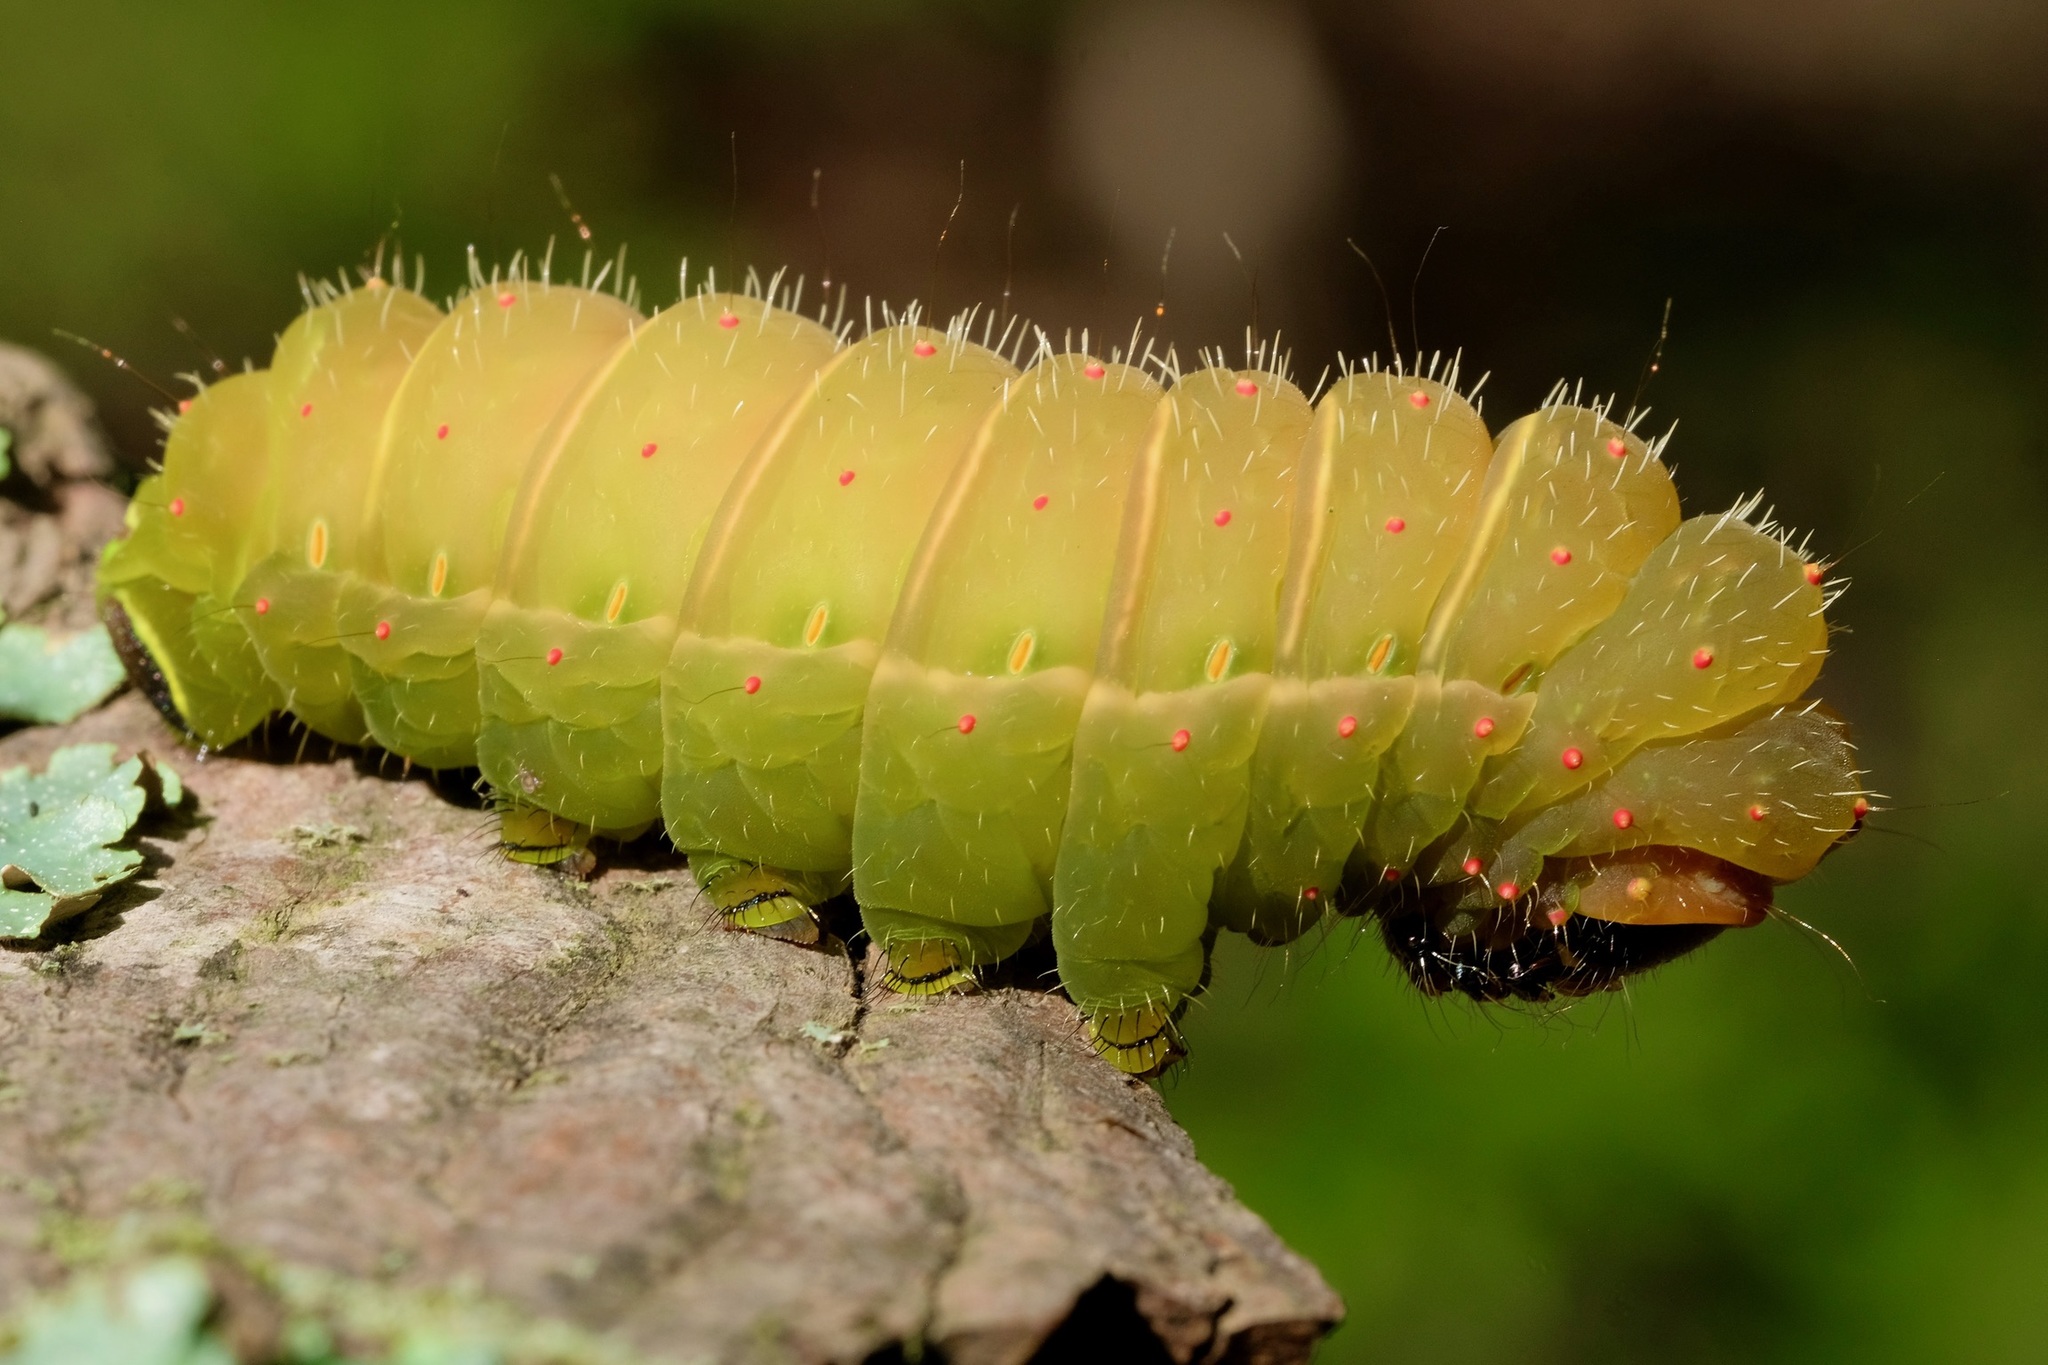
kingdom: Animalia
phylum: Arthropoda
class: Insecta
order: Lepidoptera
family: Saturniidae
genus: Actias
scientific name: Actias luna
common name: Luna moth
